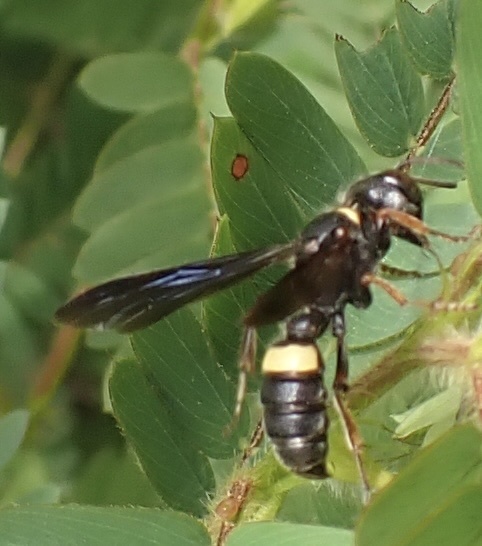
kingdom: Animalia
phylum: Arthropoda
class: Insecta
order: Hymenoptera
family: Crabronidae
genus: Cerceris
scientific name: Cerceris fumipennis
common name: Smokey-winged beetle bandit wasp
